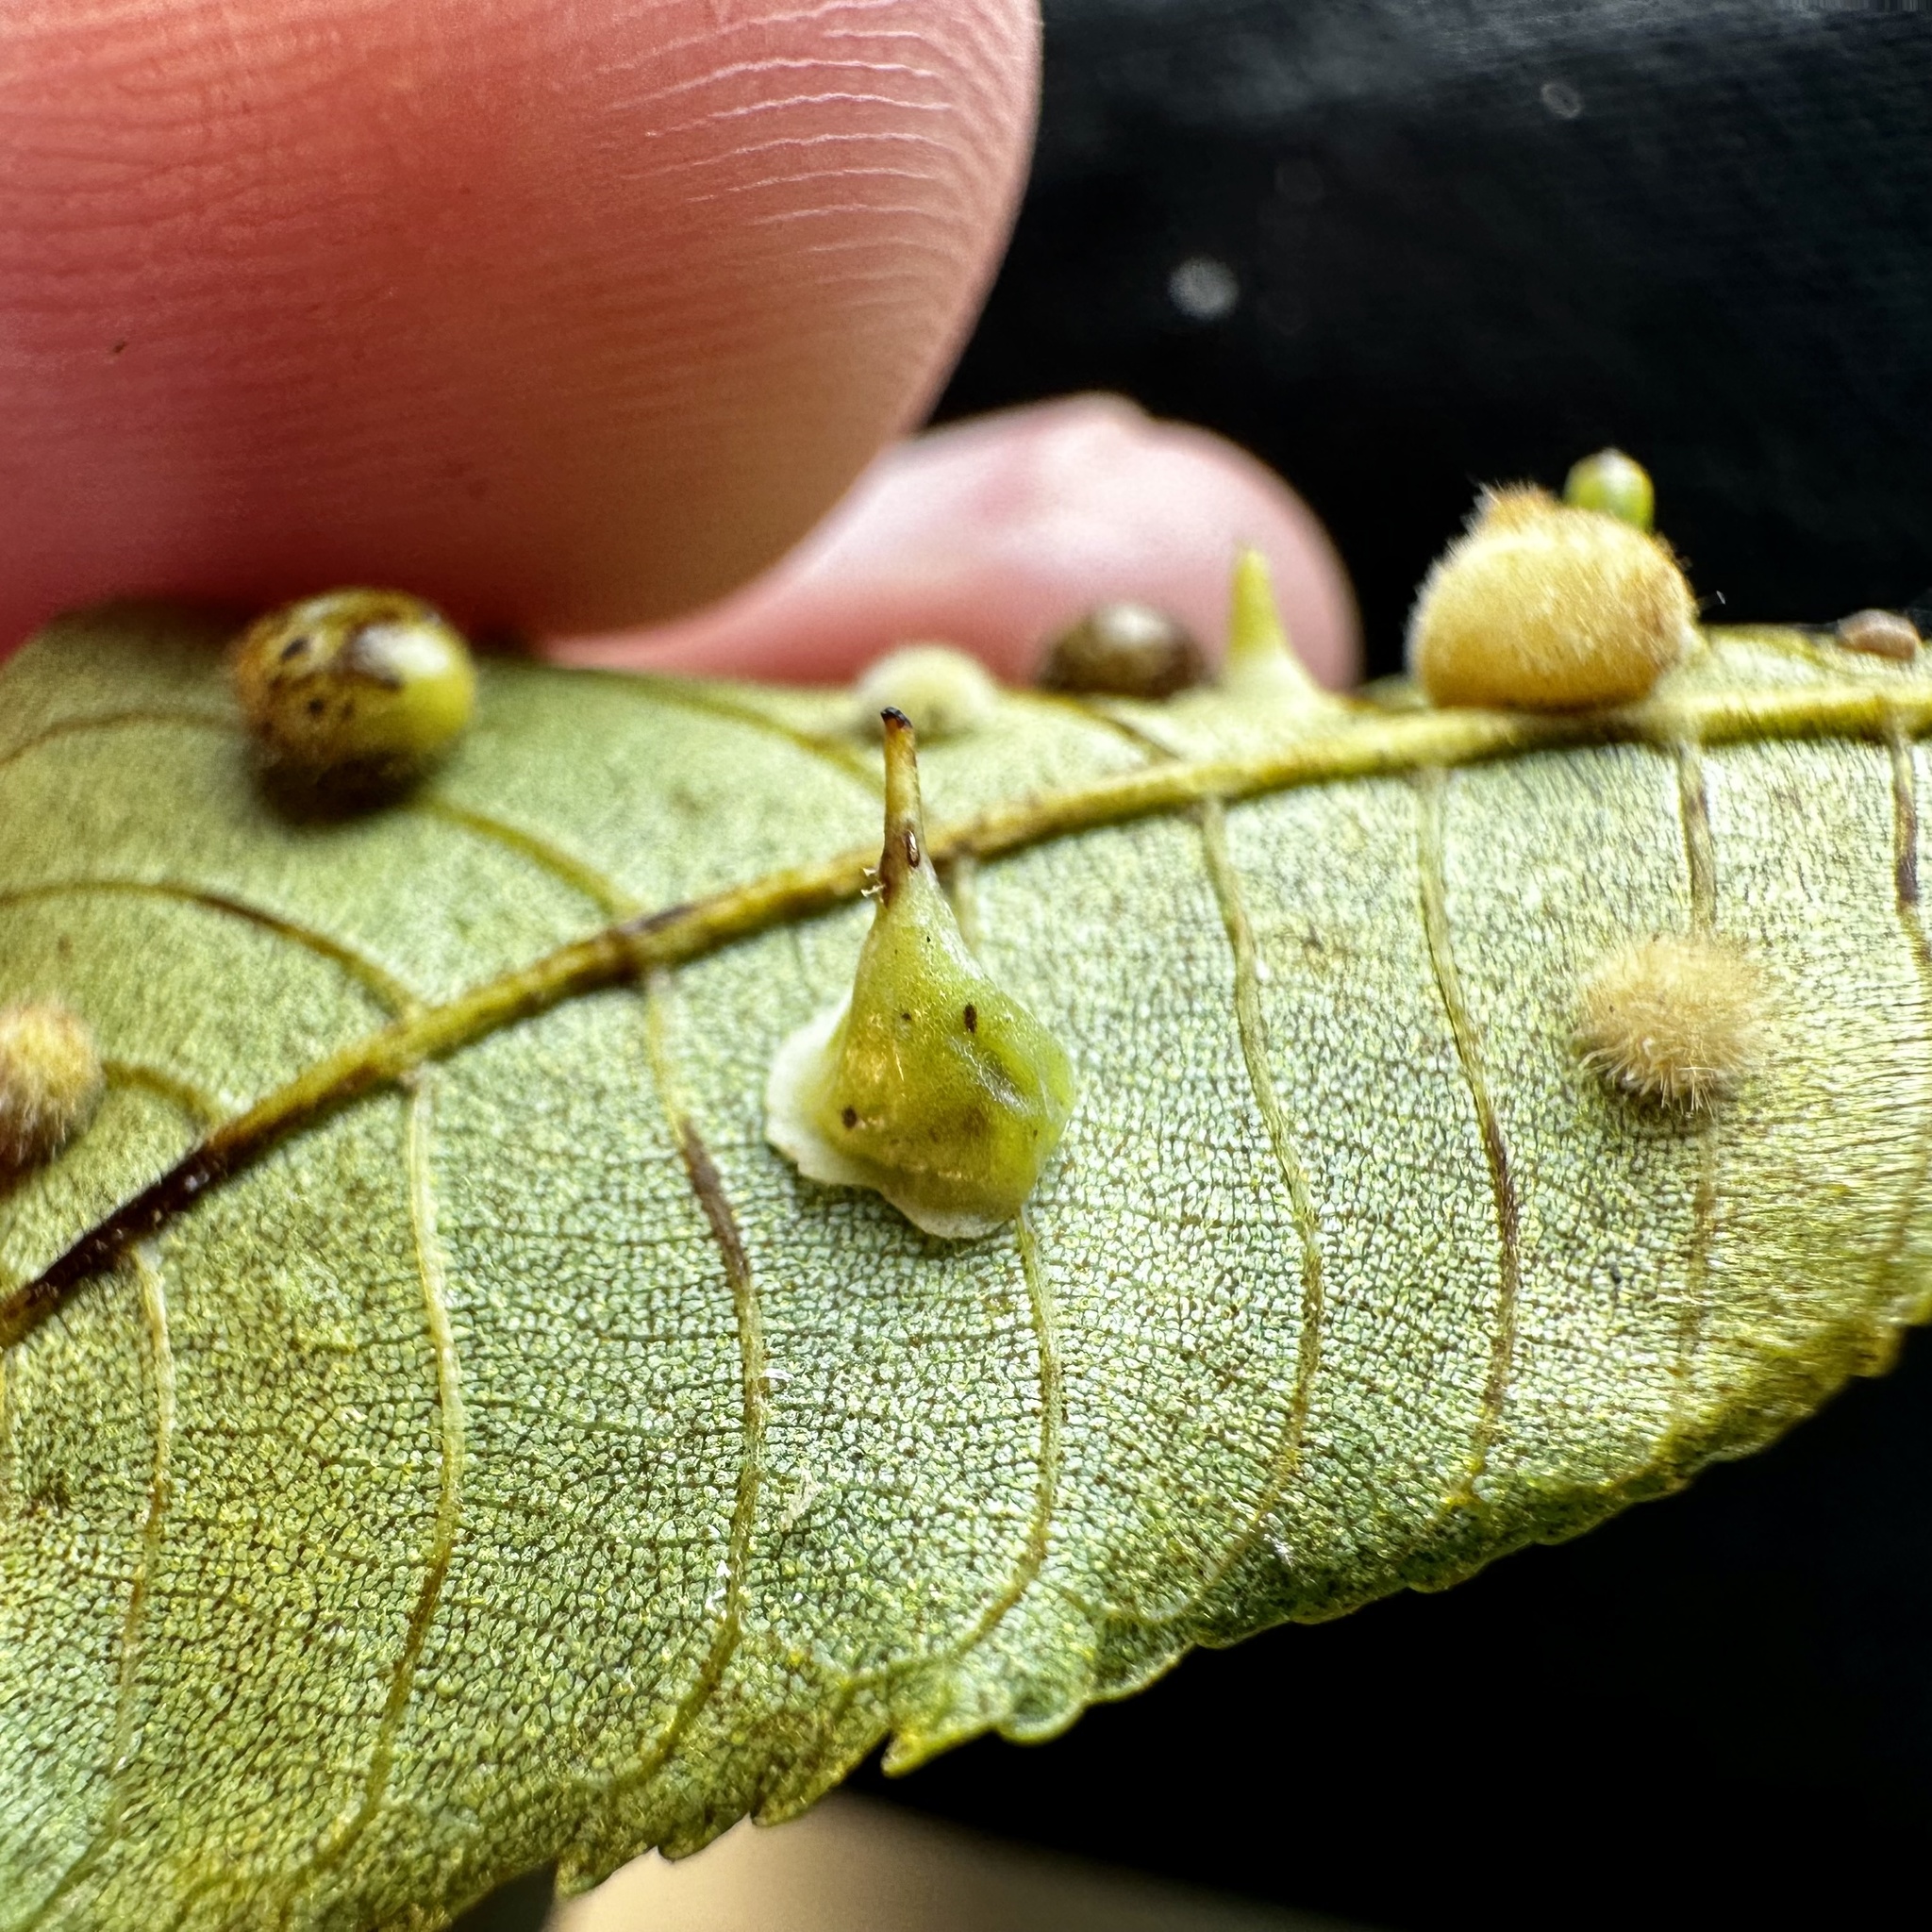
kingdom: Animalia
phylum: Arthropoda
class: Insecta
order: Diptera
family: Cecidomyiidae
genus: Caryomyia
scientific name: Caryomyia stellata
